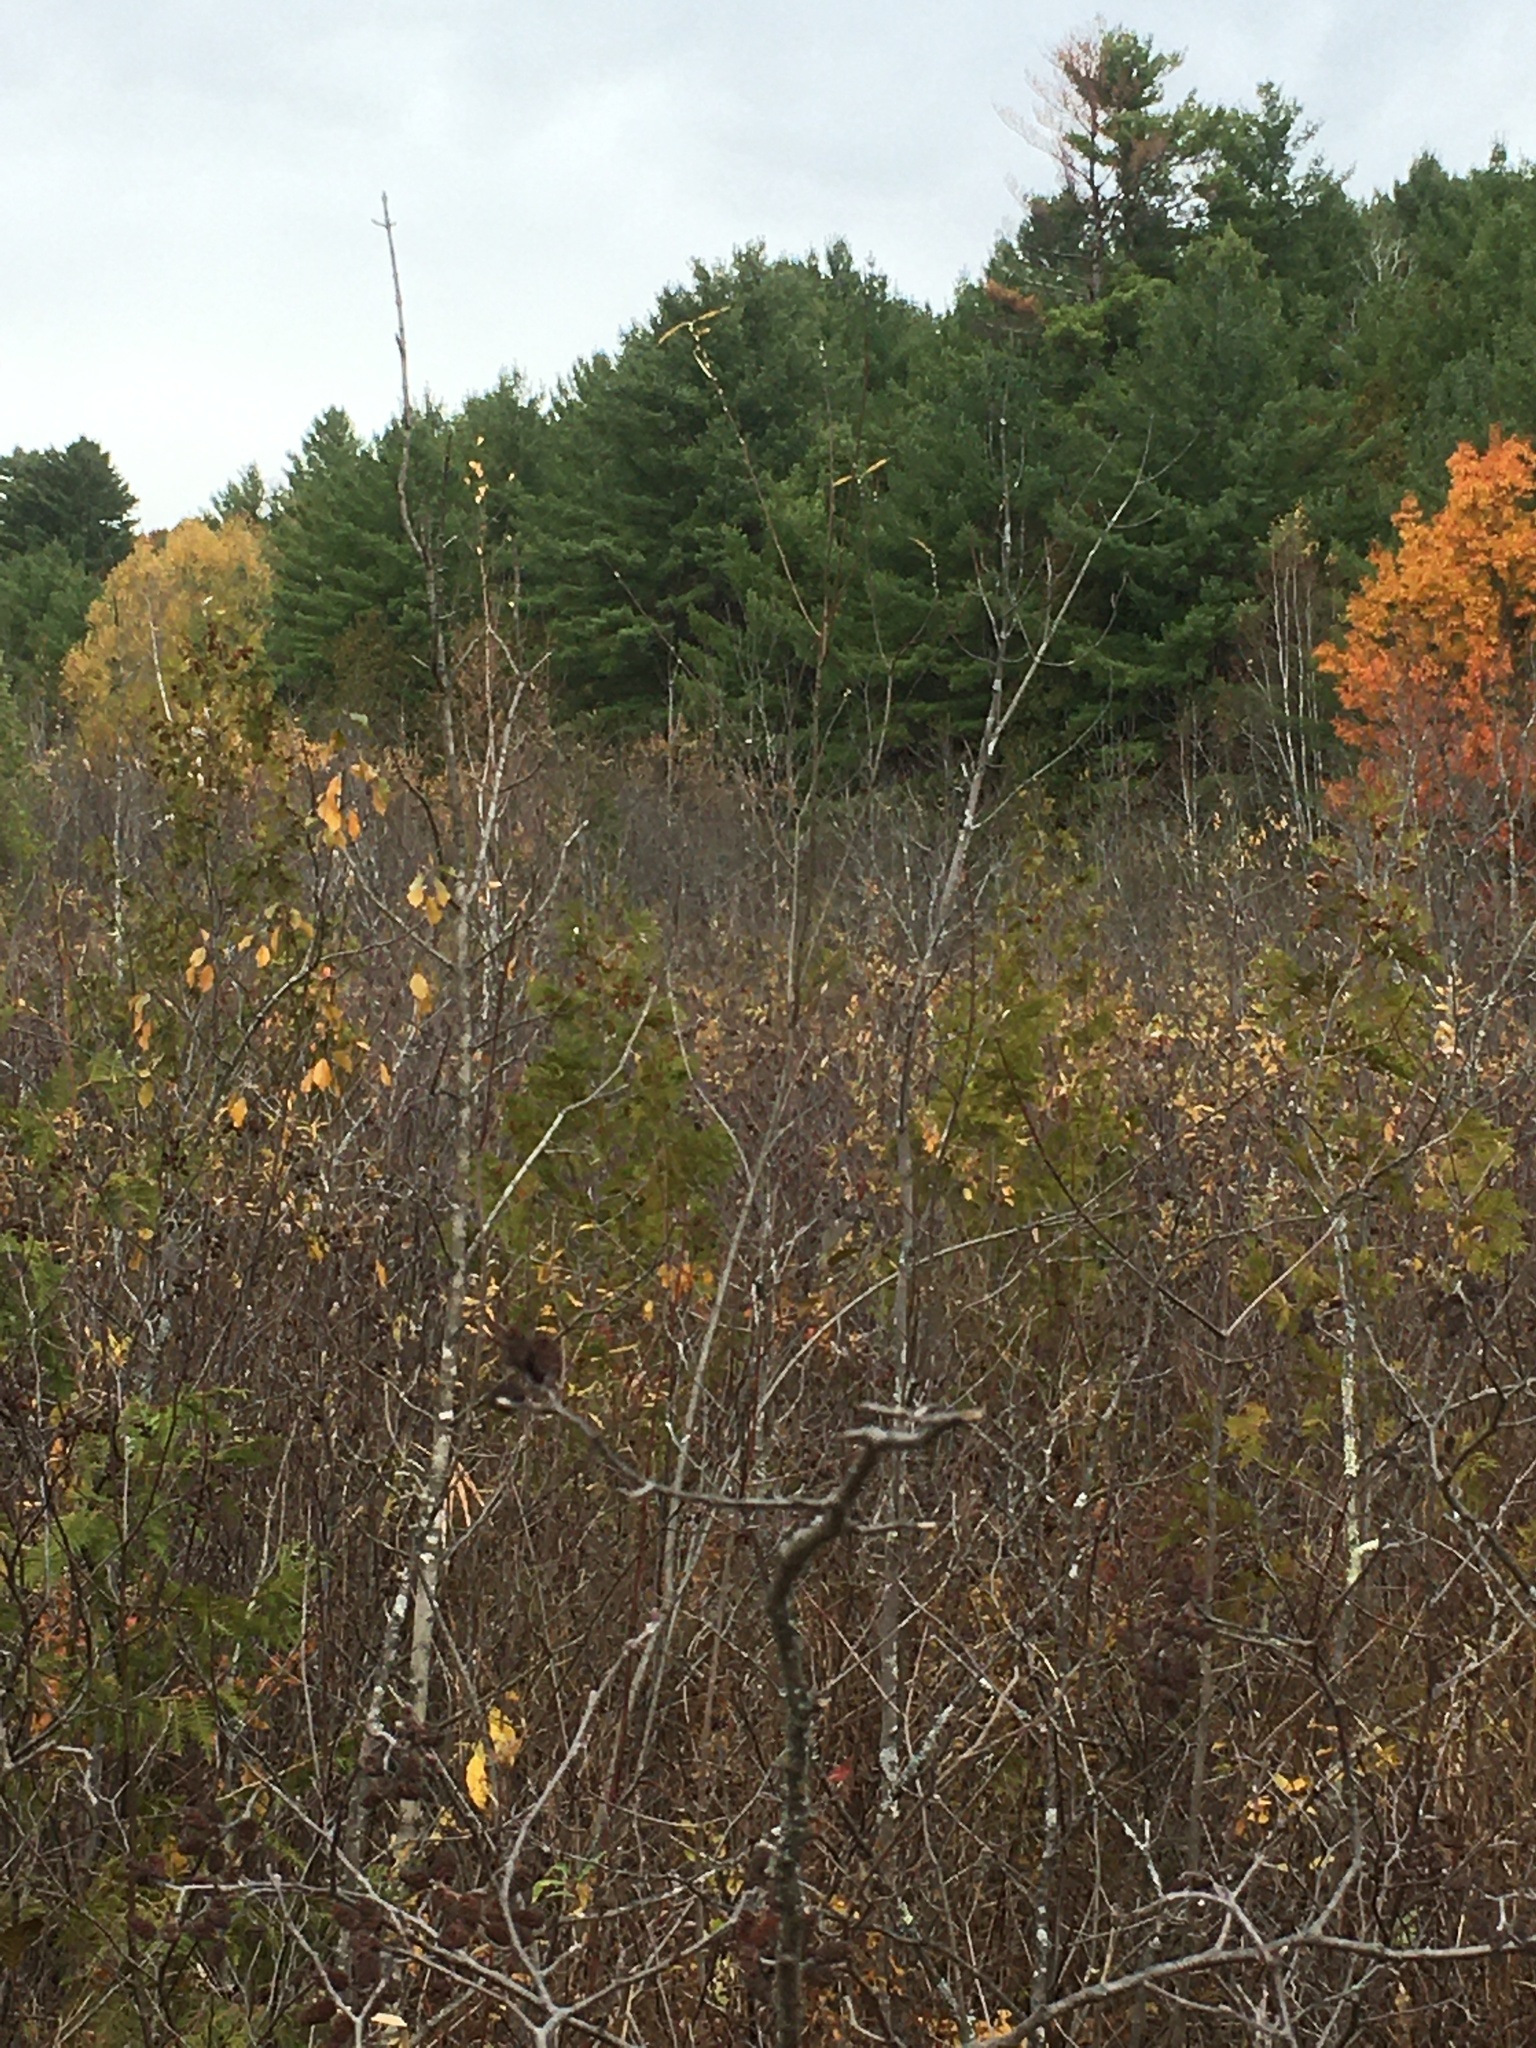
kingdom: Plantae
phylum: Tracheophyta
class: Pinopsida
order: Pinales
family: Cupressaceae
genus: Thuja
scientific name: Thuja occidentalis
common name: Northern white-cedar
